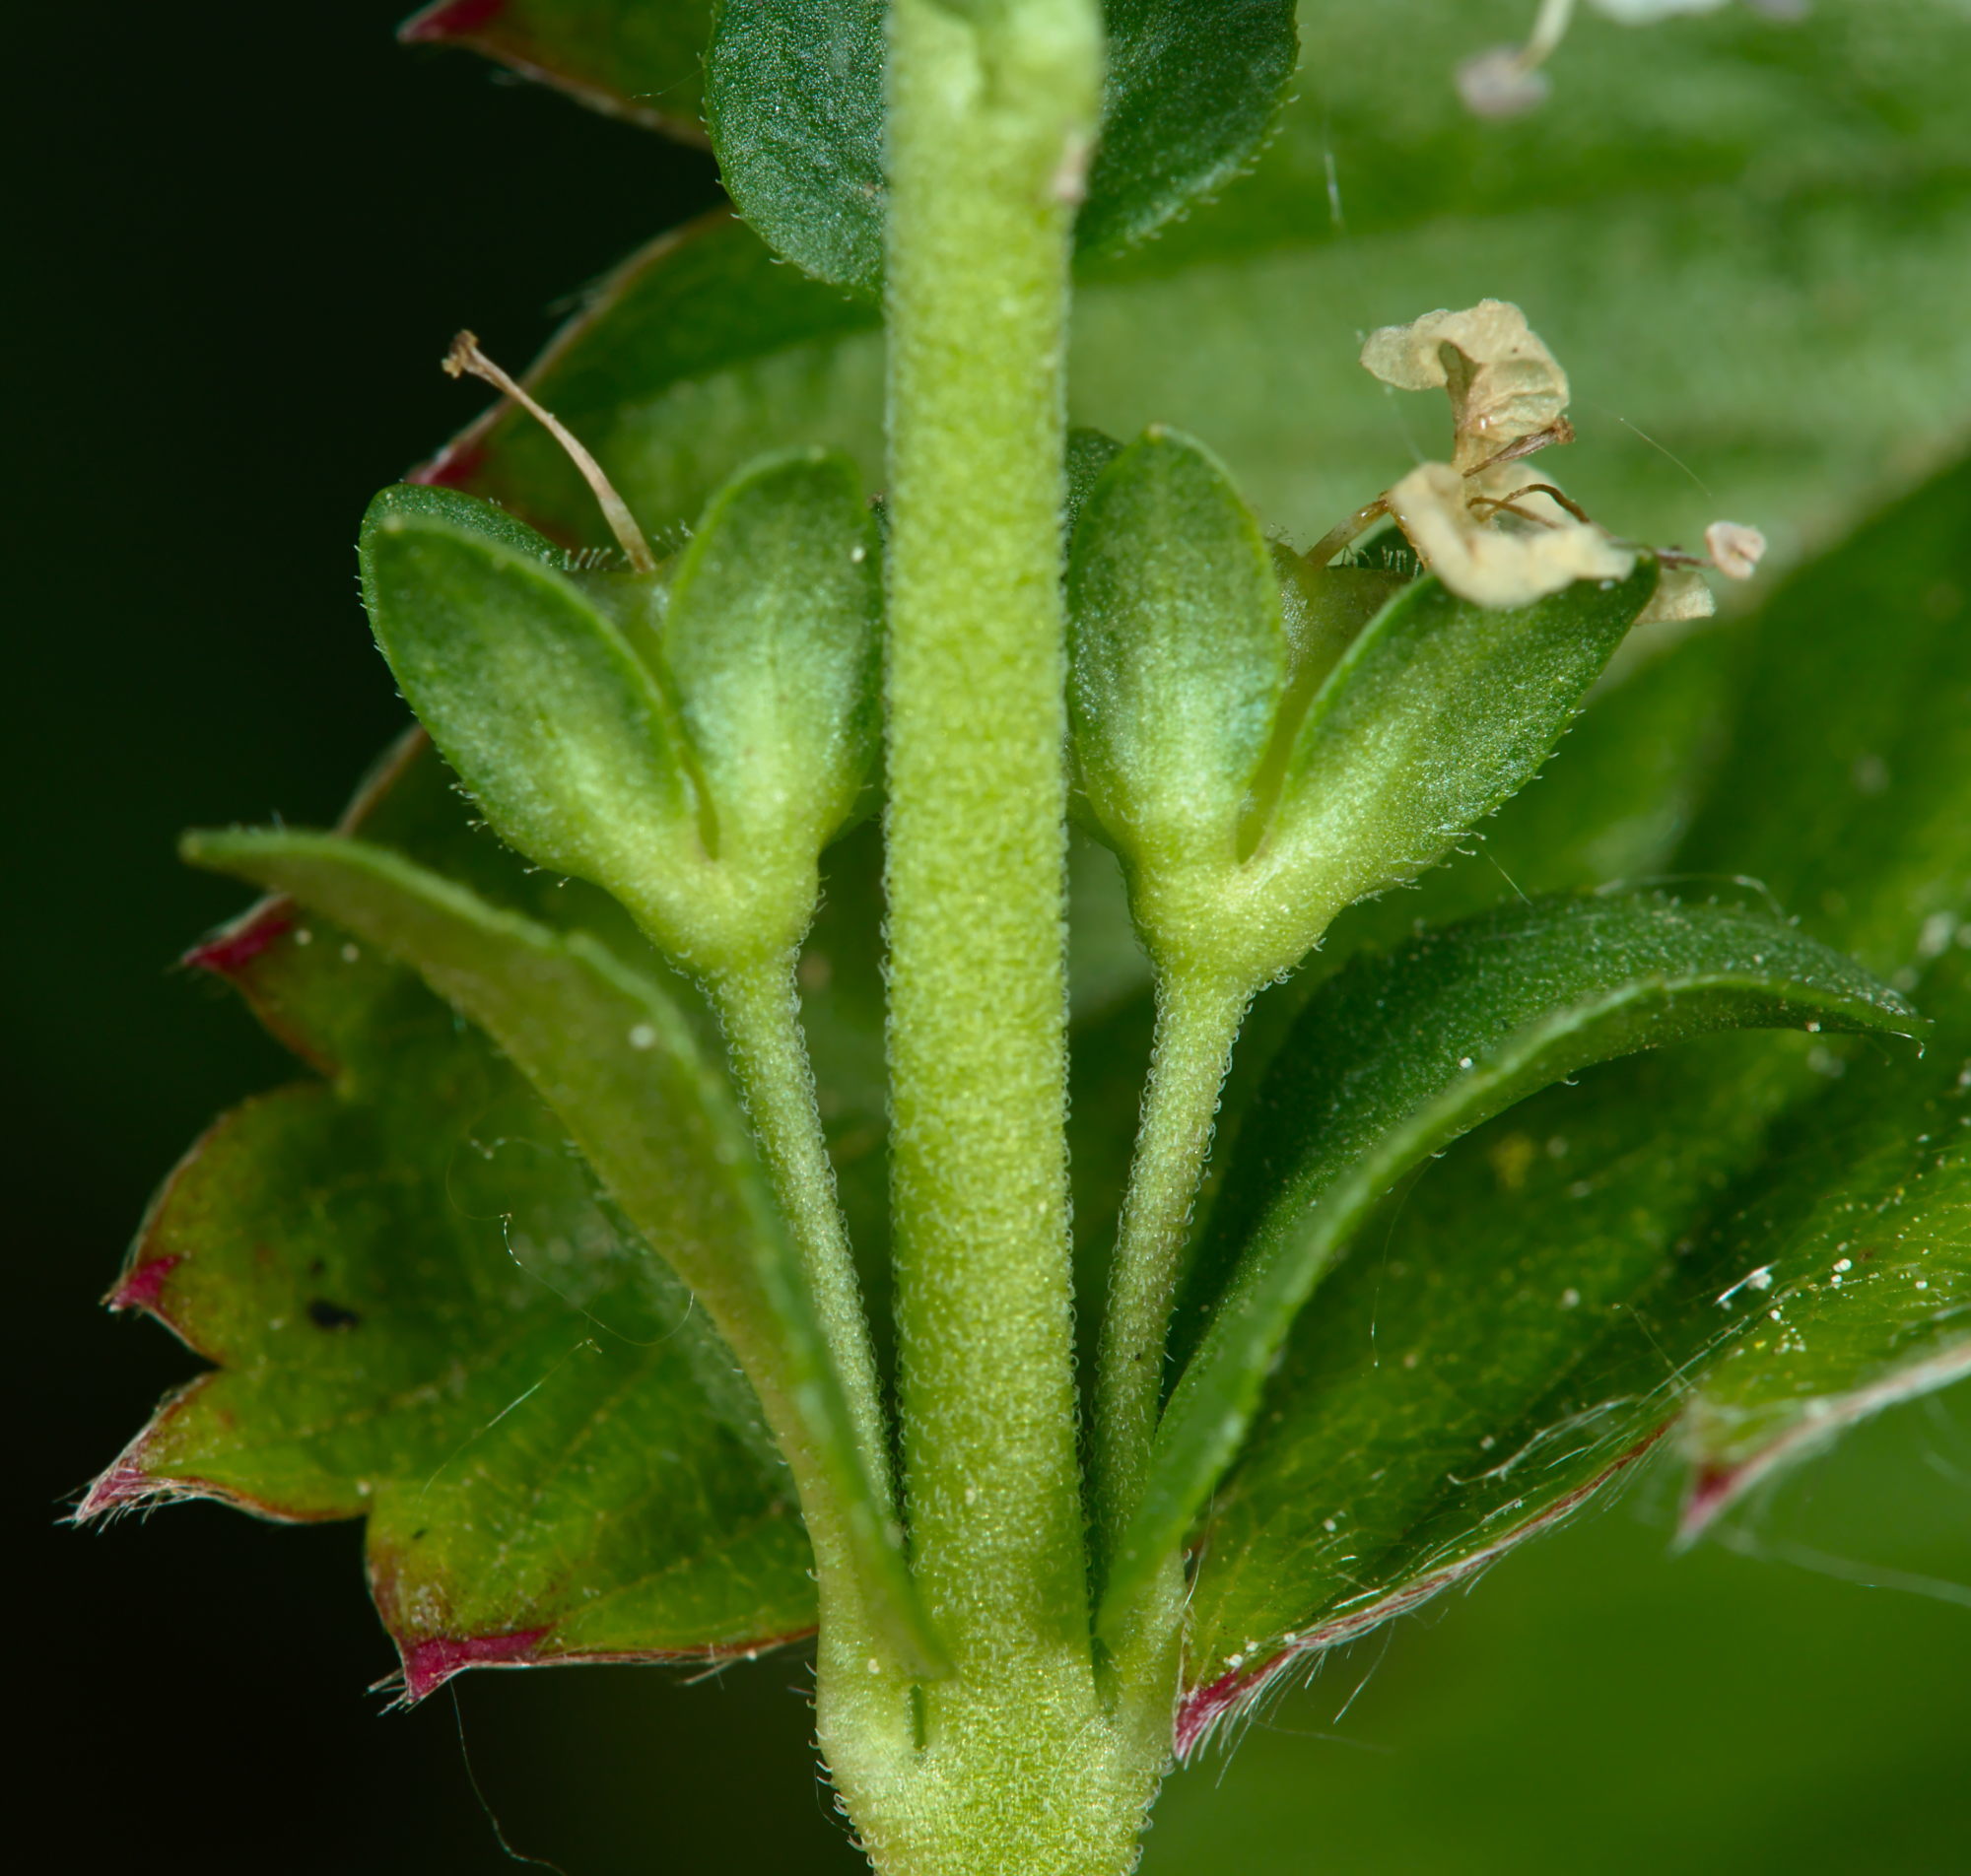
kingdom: Plantae
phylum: Tracheophyta
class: Magnoliopsida
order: Lamiales
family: Plantaginaceae
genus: Veronica
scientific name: Veronica serpyllifolia
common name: Thyme-leaved speedwell
